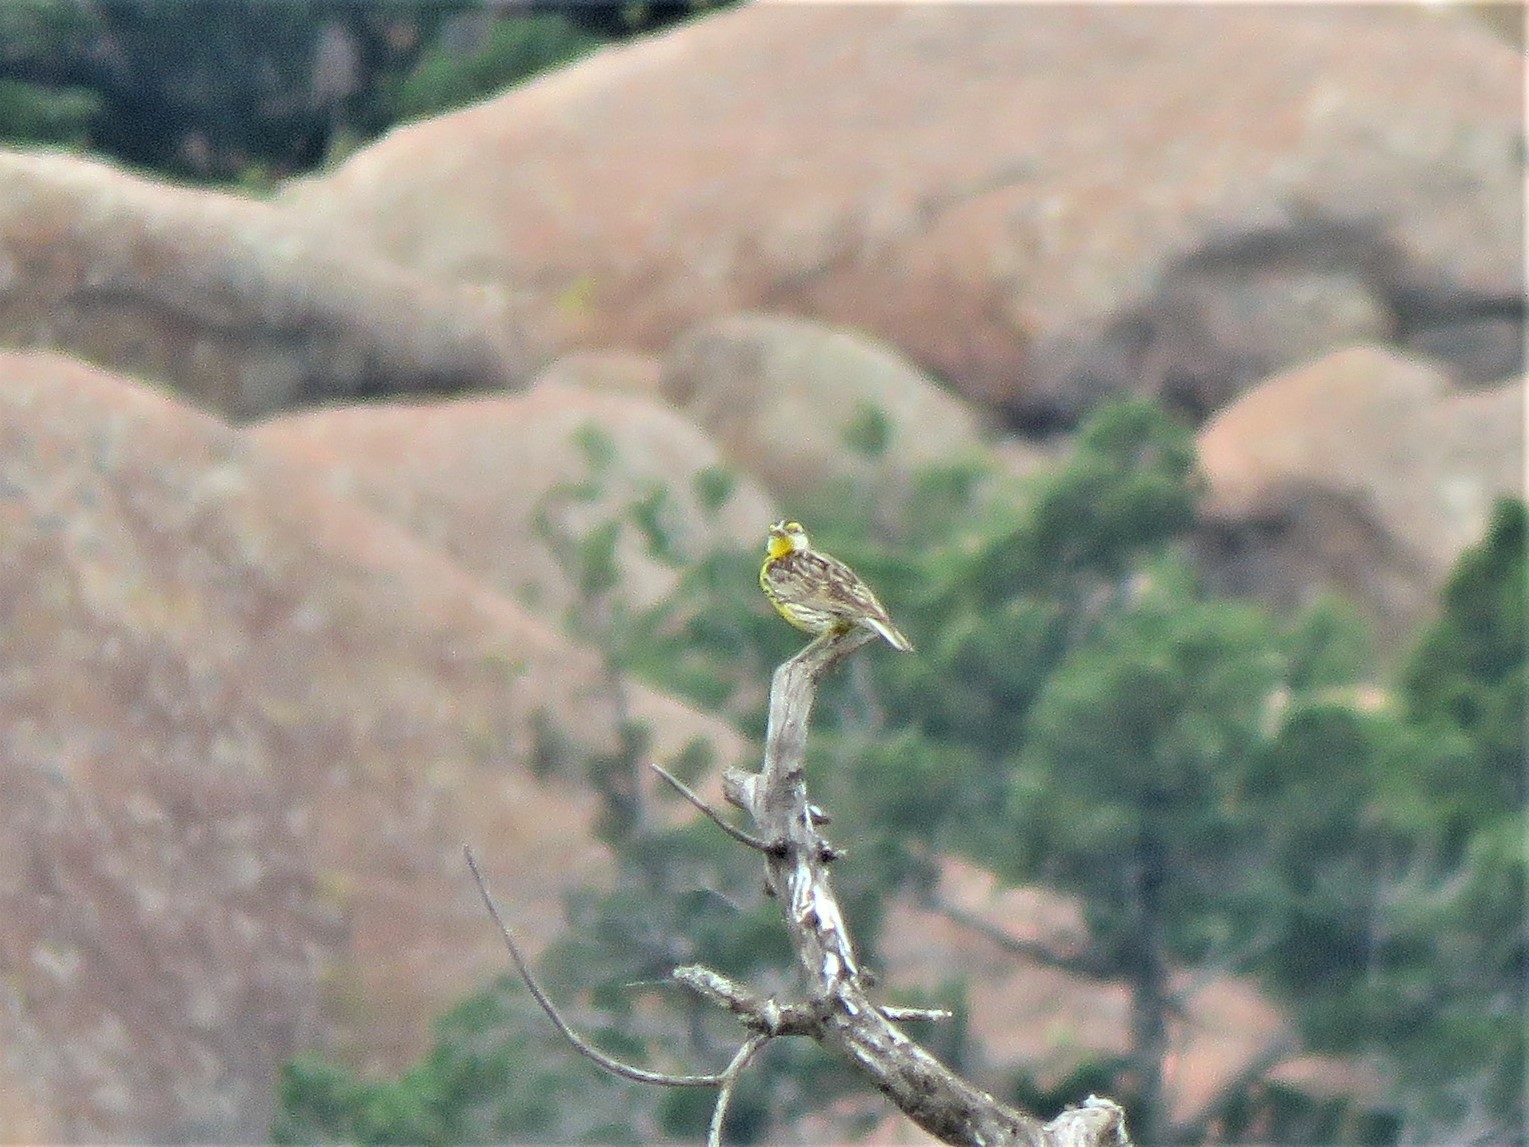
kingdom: Animalia
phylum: Chordata
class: Aves
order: Passeriformes
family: Icteridae
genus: Sturnella
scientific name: Sturnella magna
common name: Eastern meadowlark
